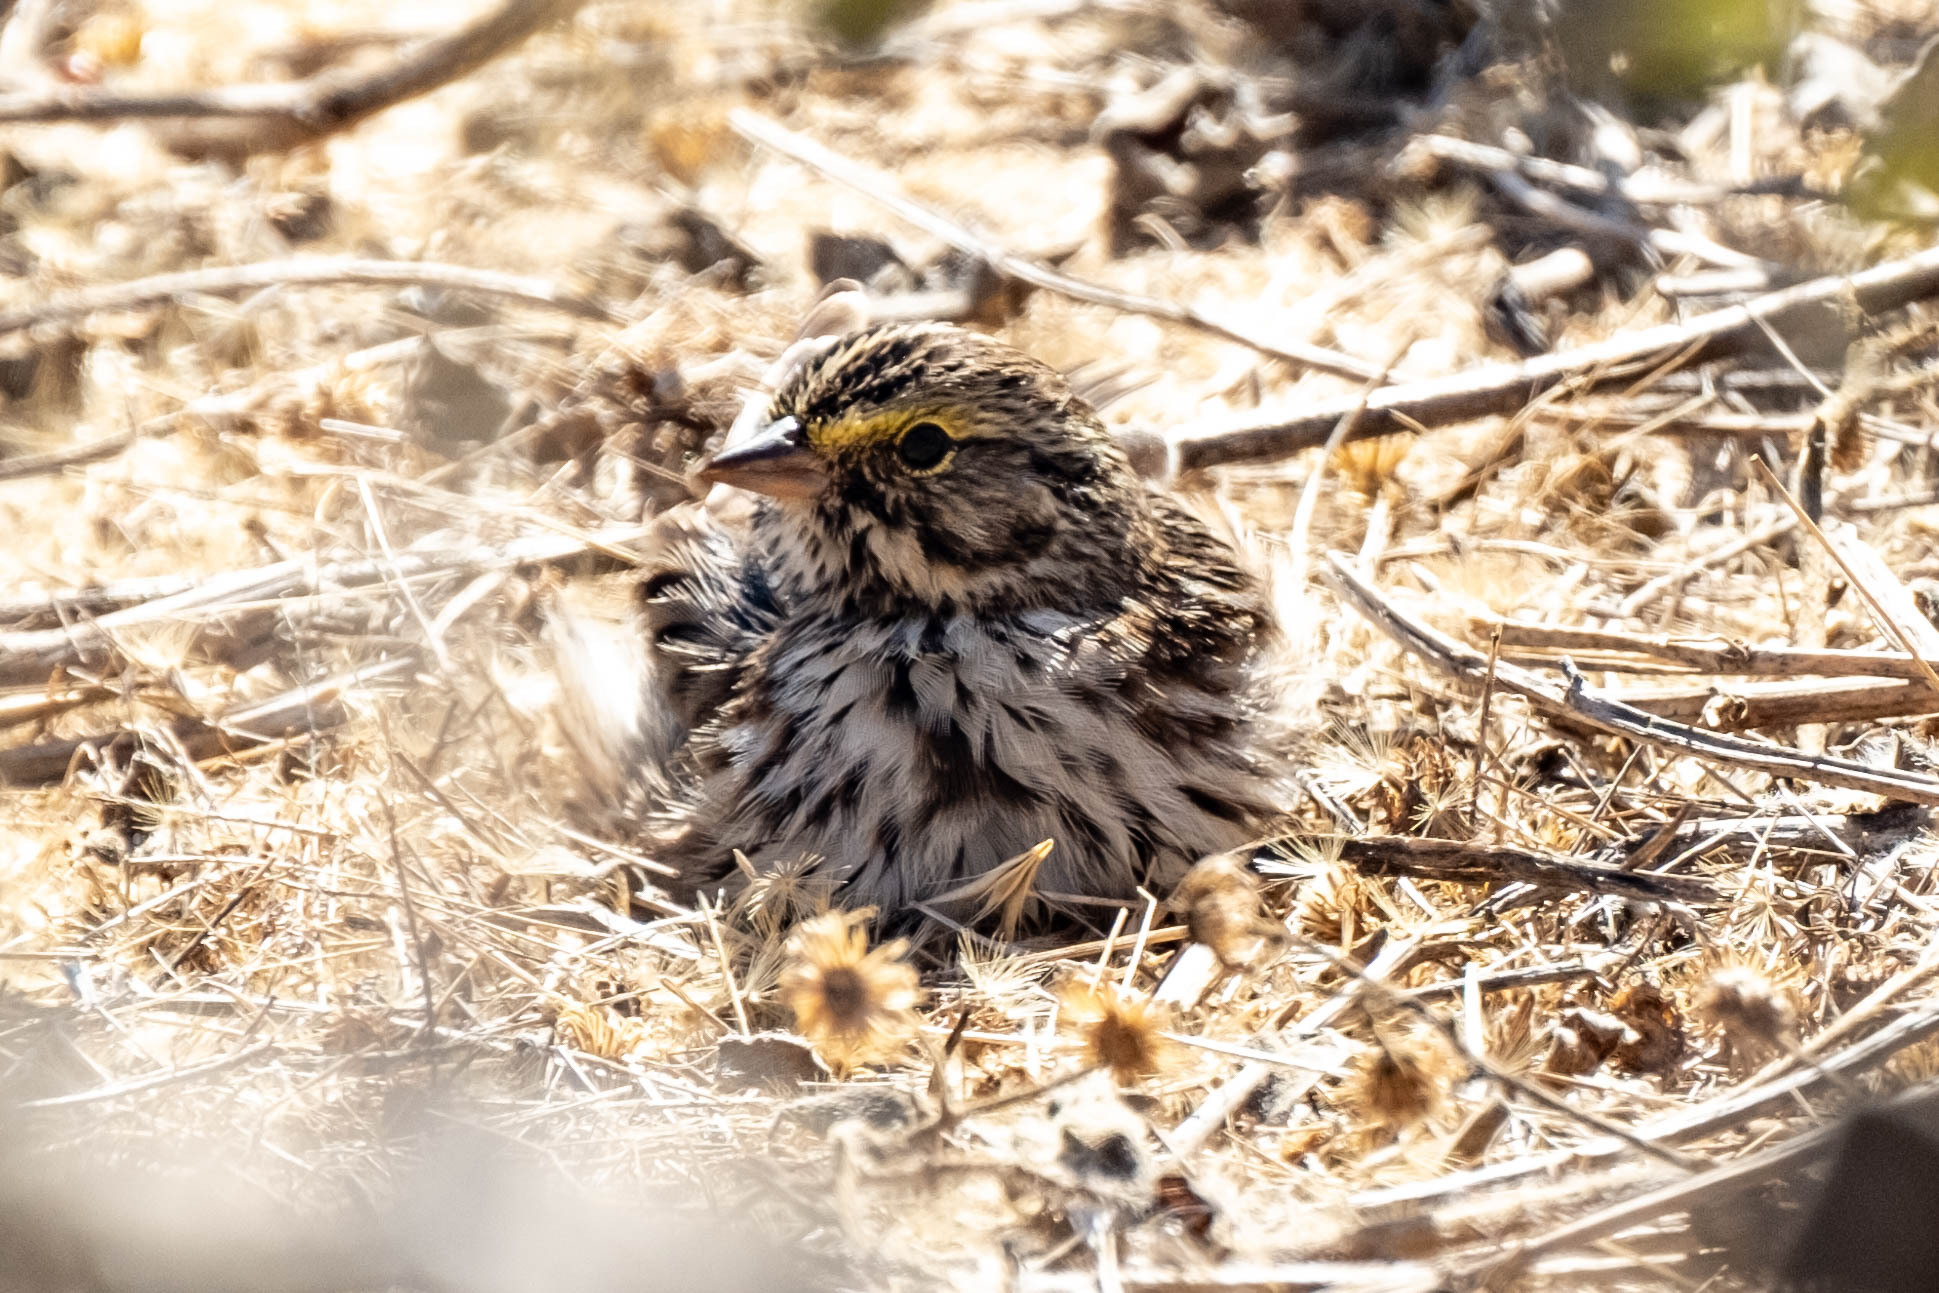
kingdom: Animalia
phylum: Chordata
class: Aves
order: Passeriformes
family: Passerellidae
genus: Passerculus
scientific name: Passerculus sandwichensis
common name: Savannah sparrow
